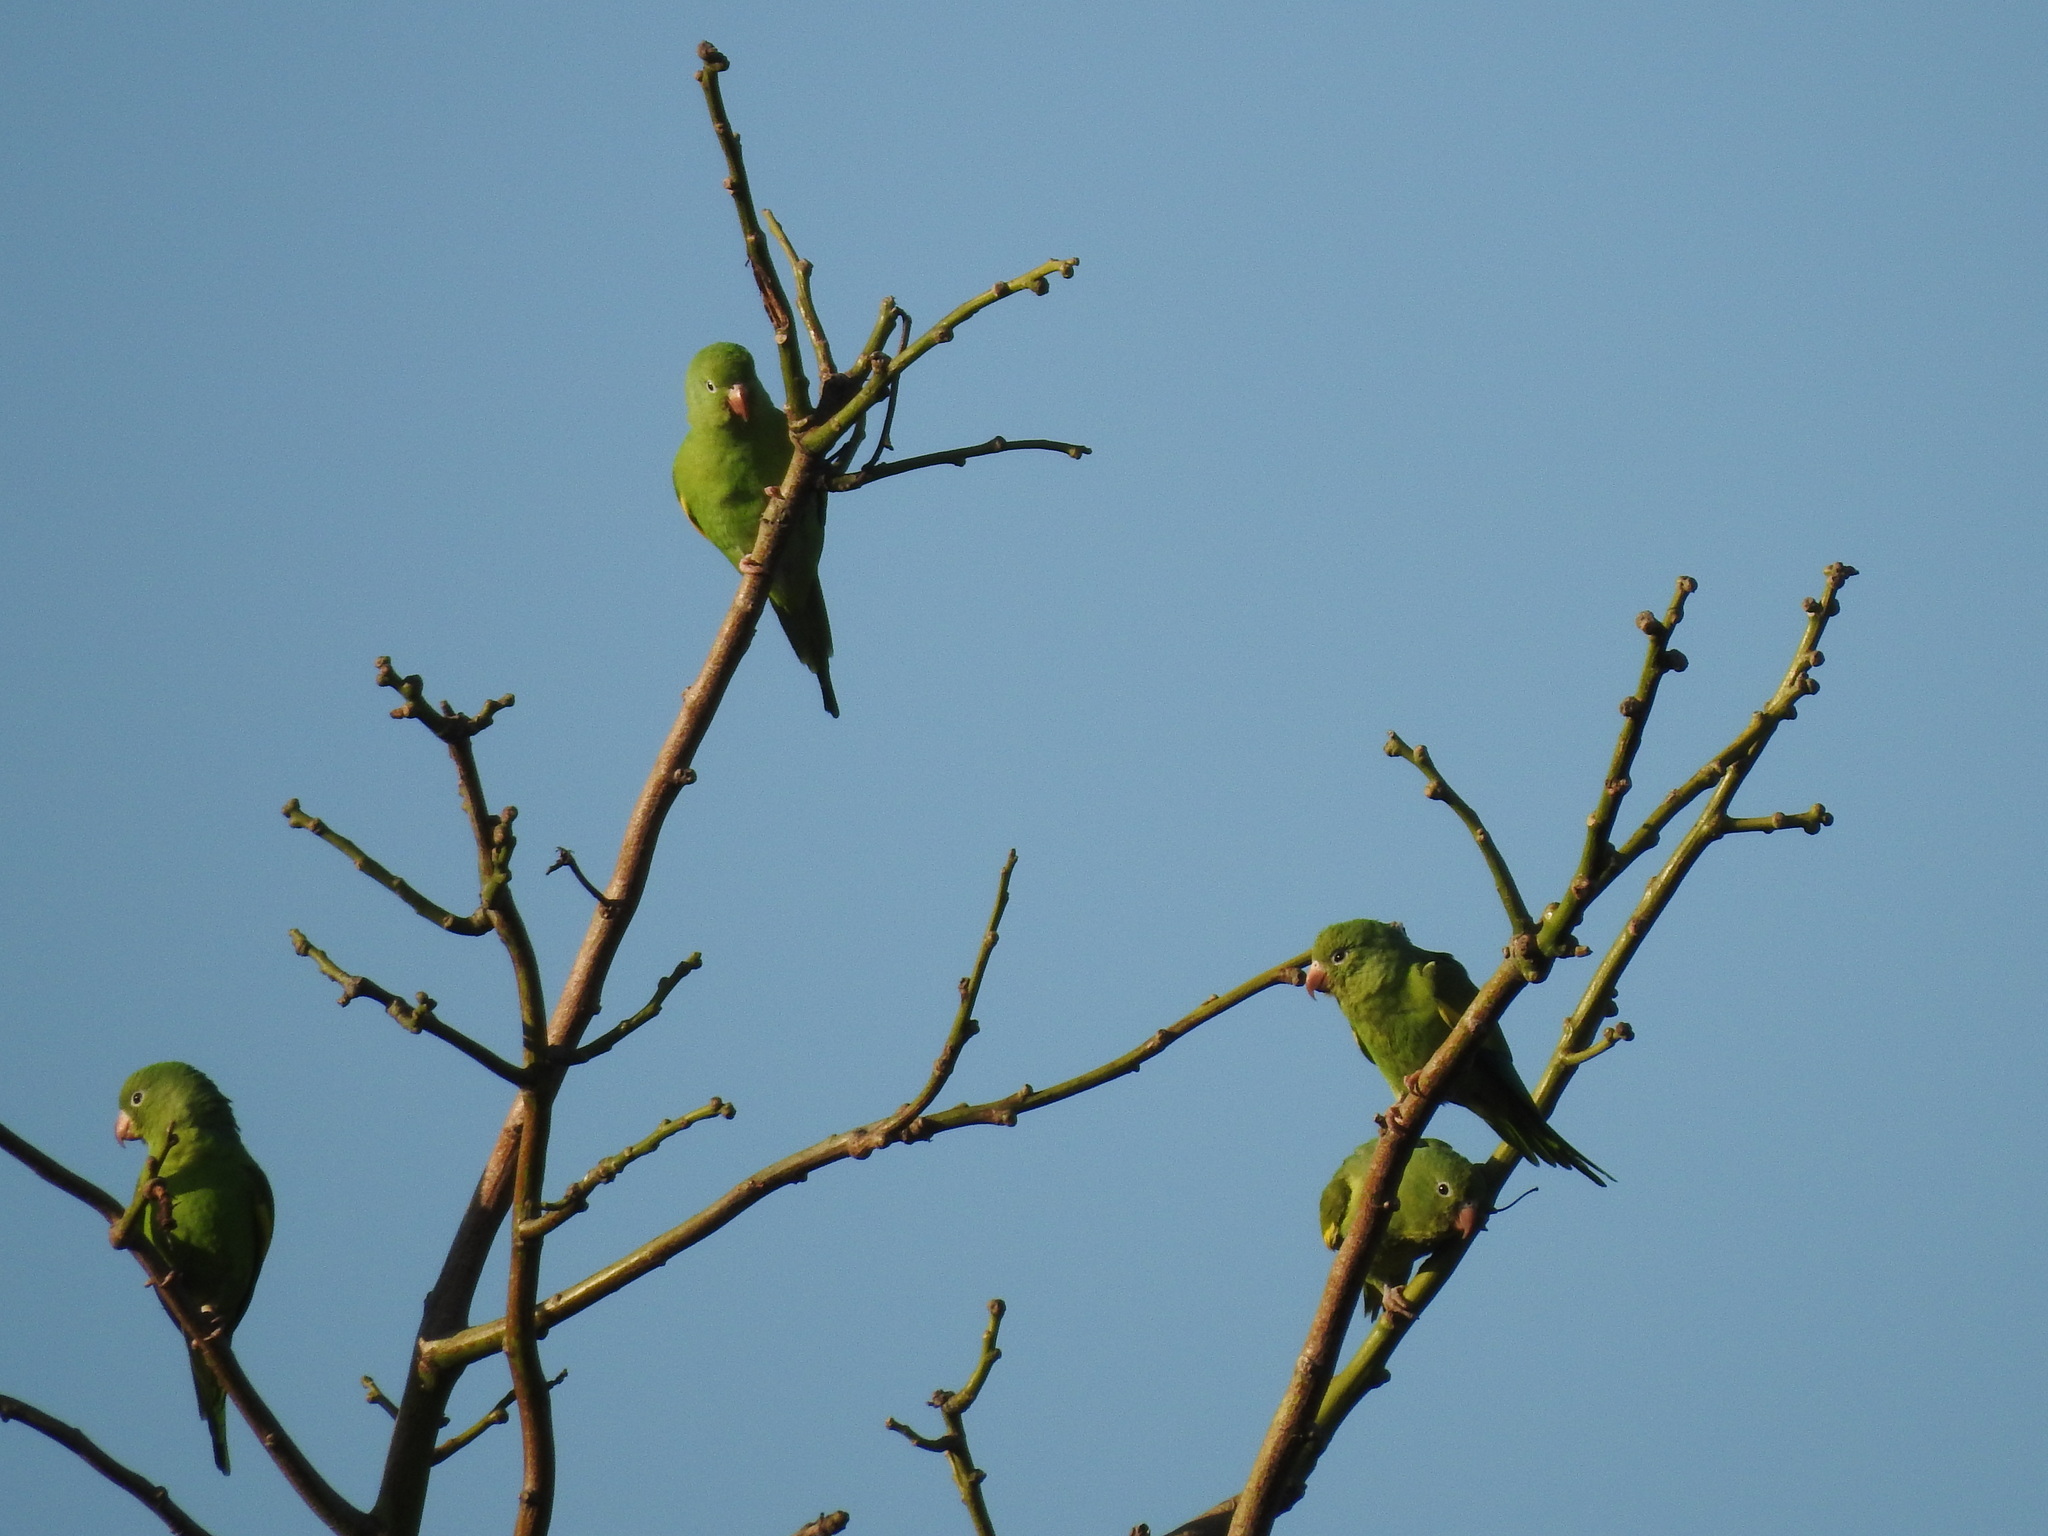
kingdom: Animalia
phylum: Chordata
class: Aves
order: Psittaciformes
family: Psittacidae
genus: Brotogeris
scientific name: Brotogeris chiriri
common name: Yellow-chevroned parakeet
